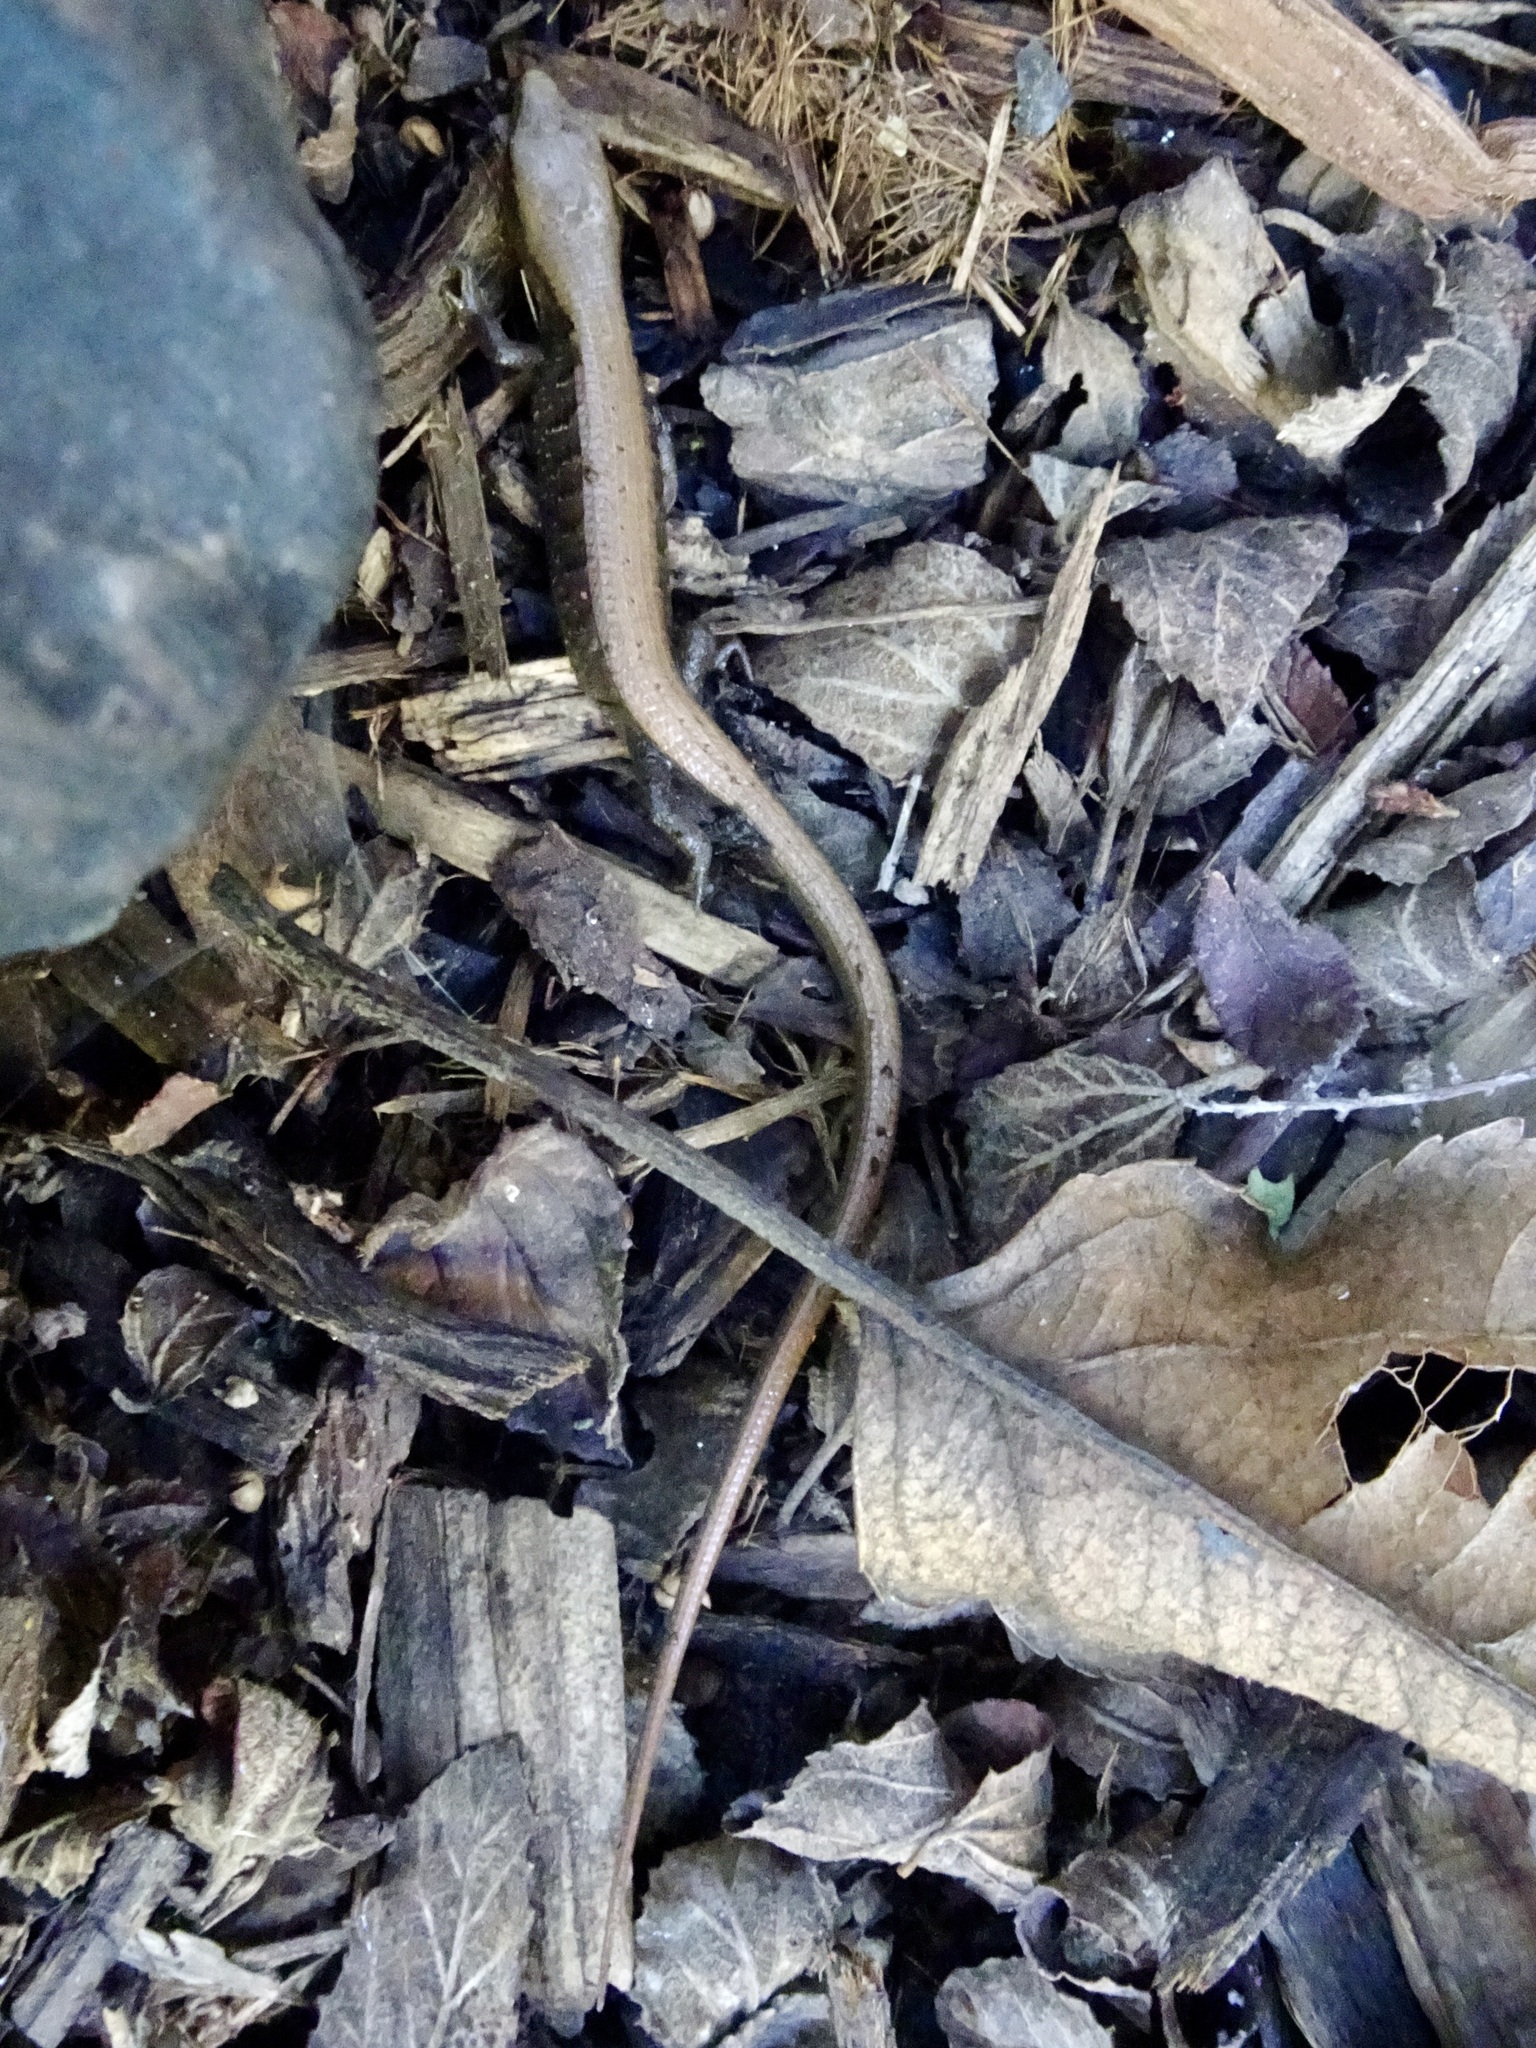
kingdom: Animalia
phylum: Chordata
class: Squamata
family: Anguidae
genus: Elgaria
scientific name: Elgaria multicarinata
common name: Southern alligator lizard
